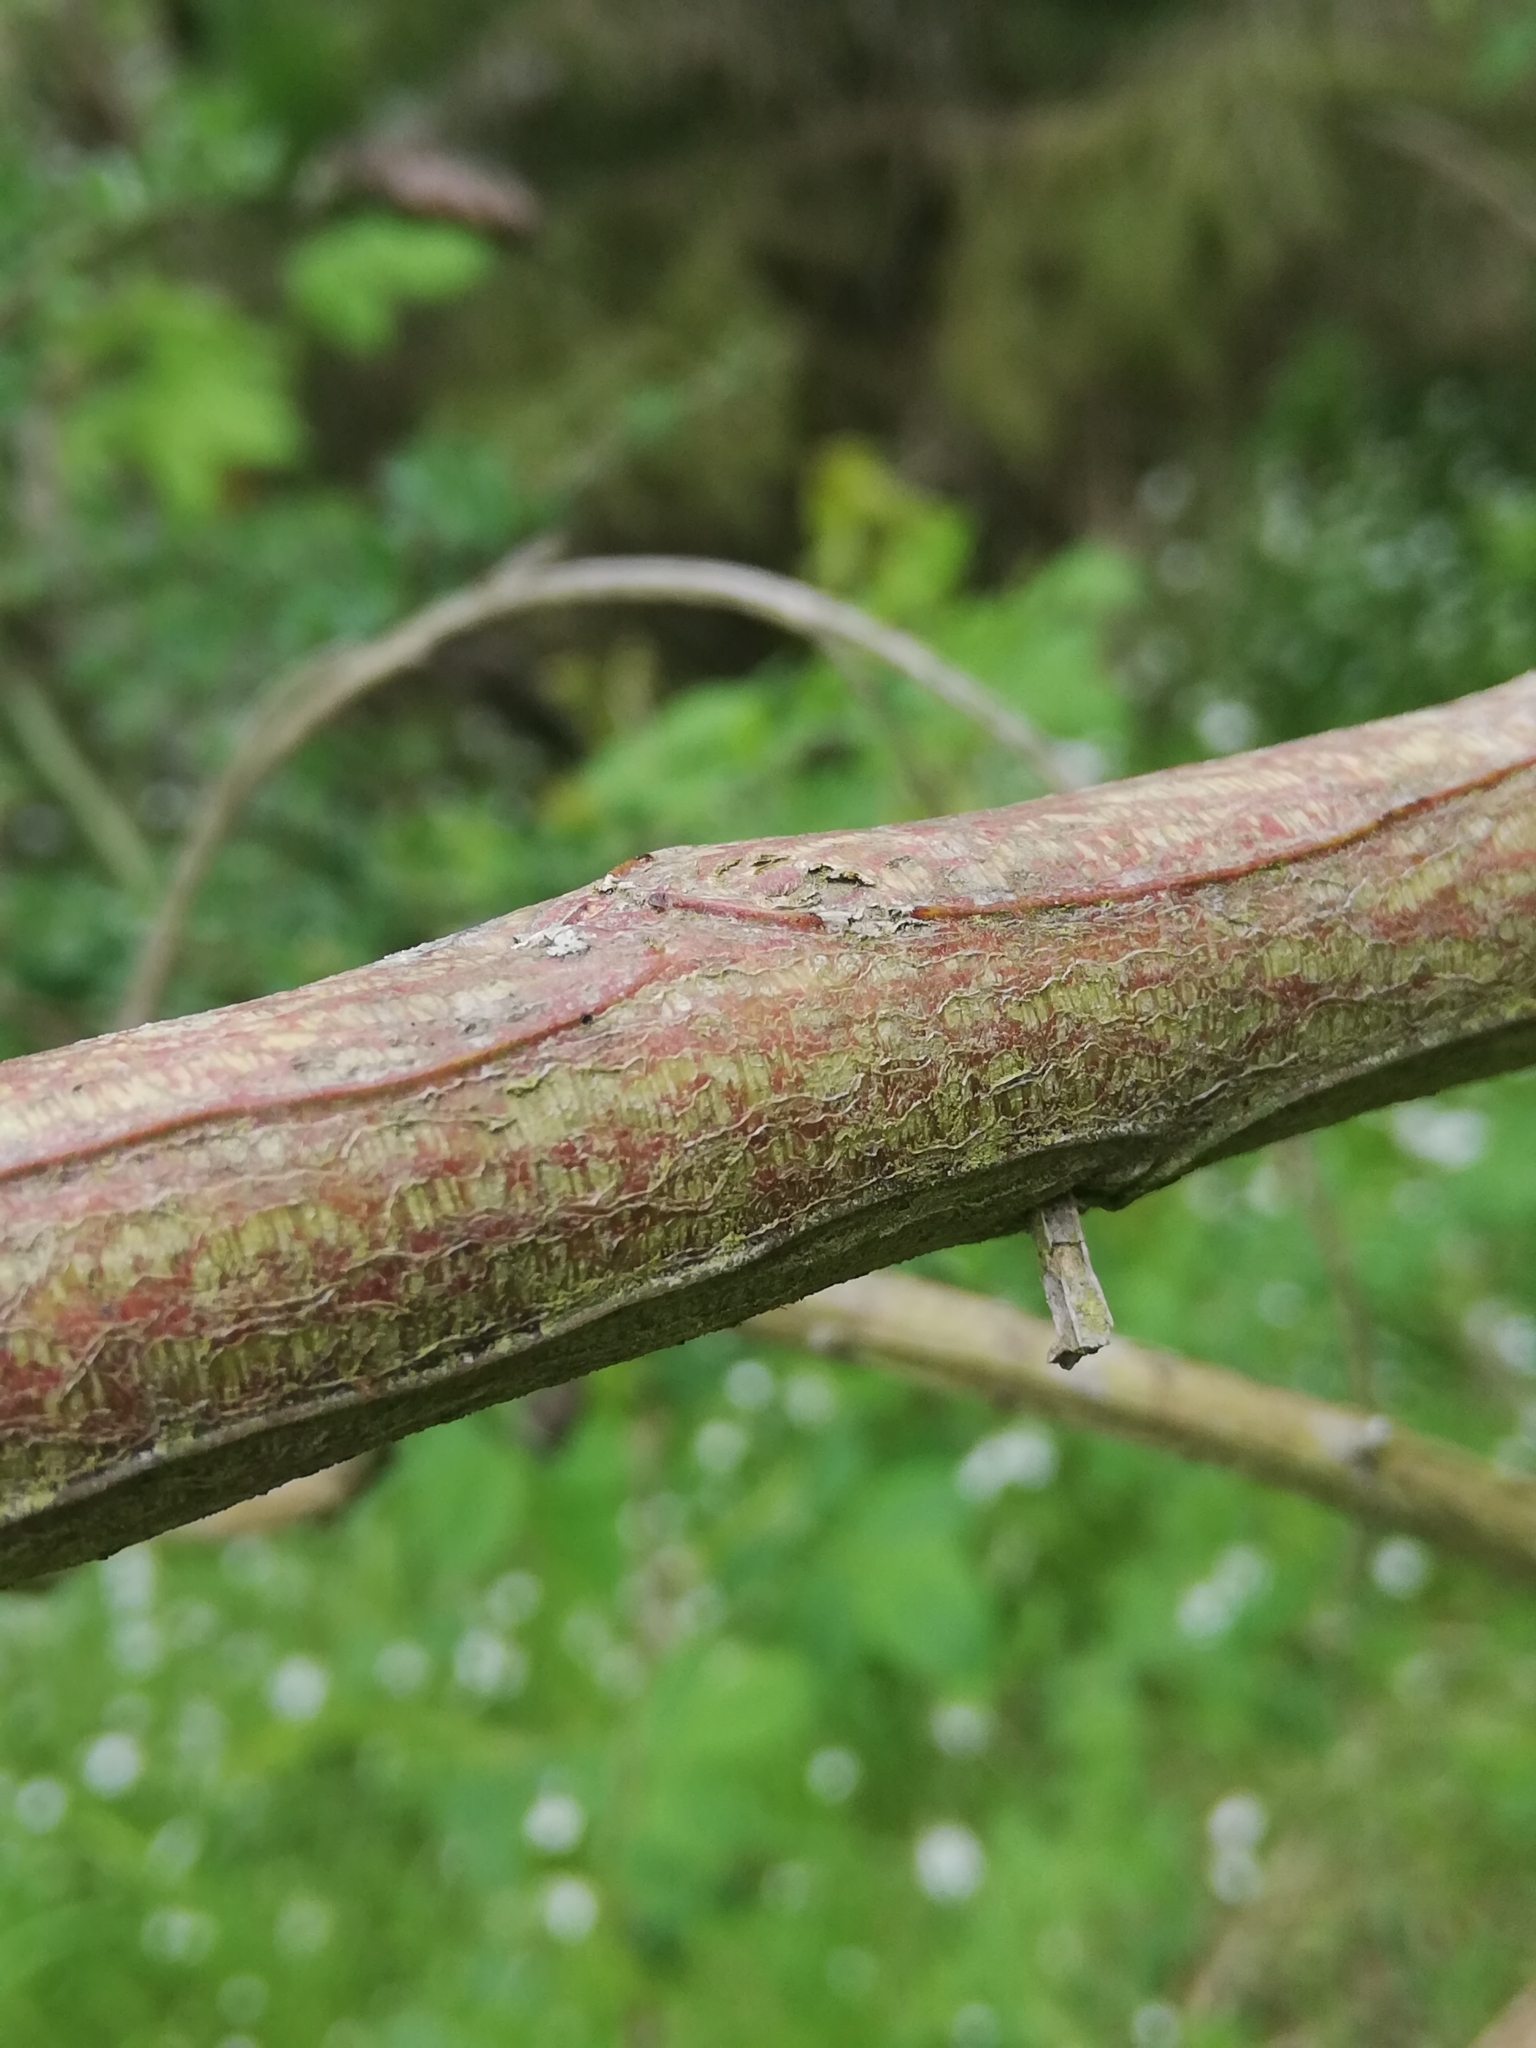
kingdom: Plantae
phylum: Tracheophyta
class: Magnoliopsida
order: Fabales
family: Fabaceae
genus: Cytisus
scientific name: Cytisus scoparius
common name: Scotch broom
